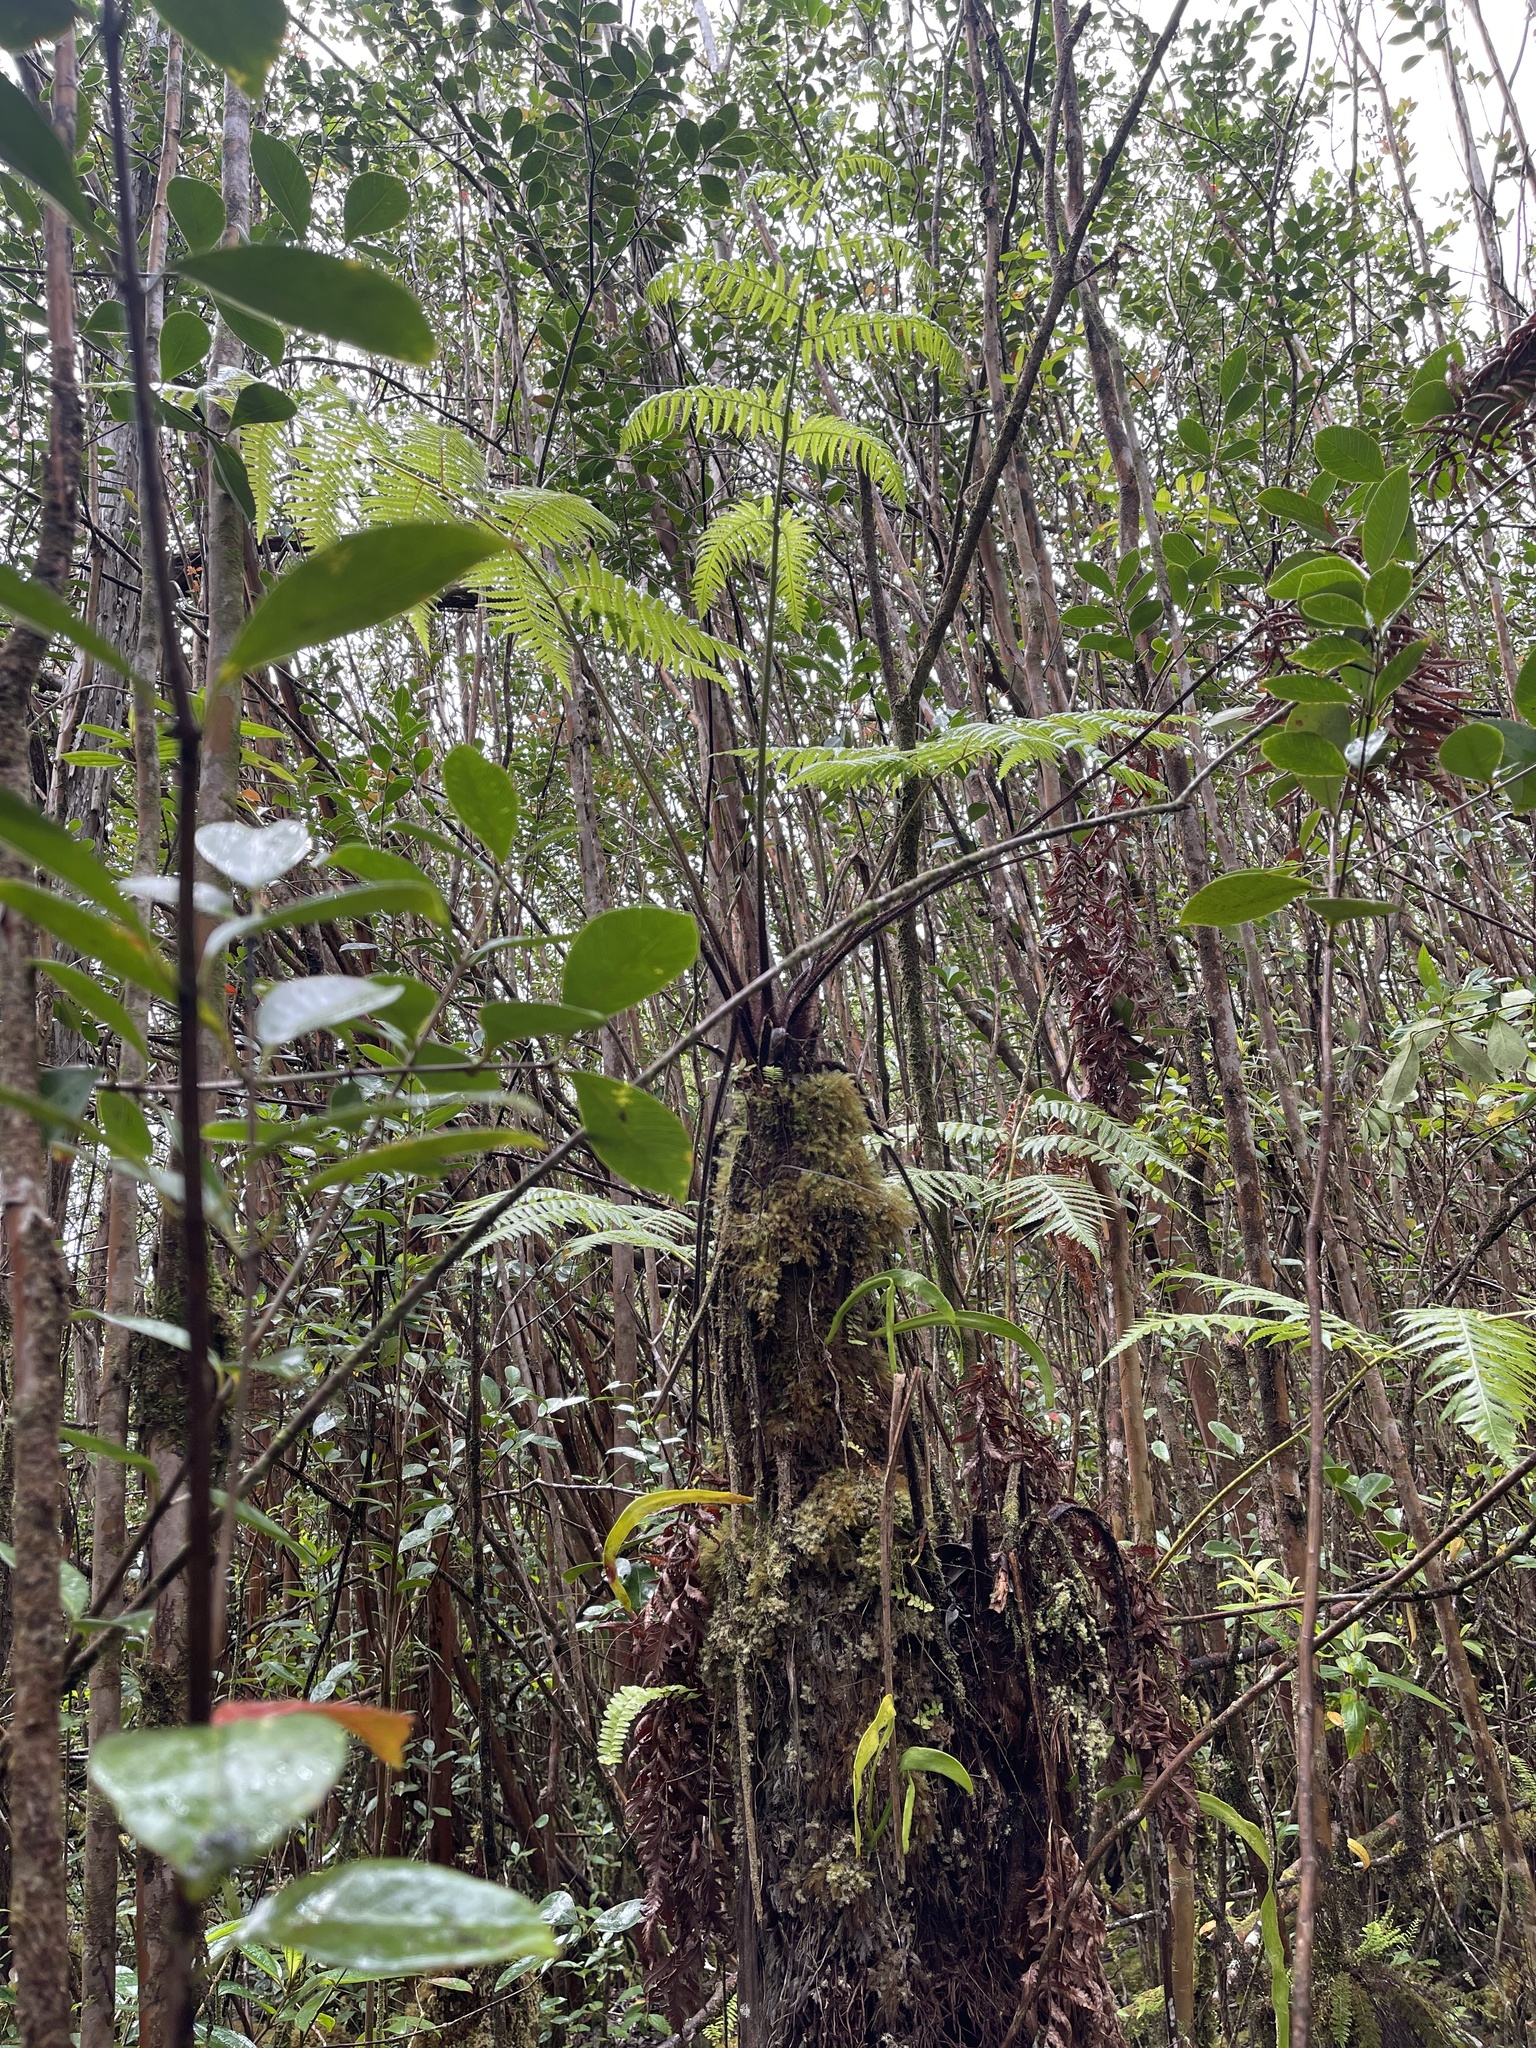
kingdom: Plantae
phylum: Tracheophyta
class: Polypodiopsida
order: Cyatheales
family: Cibotiaceae
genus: Cibotium
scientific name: Cibotium menziesii
